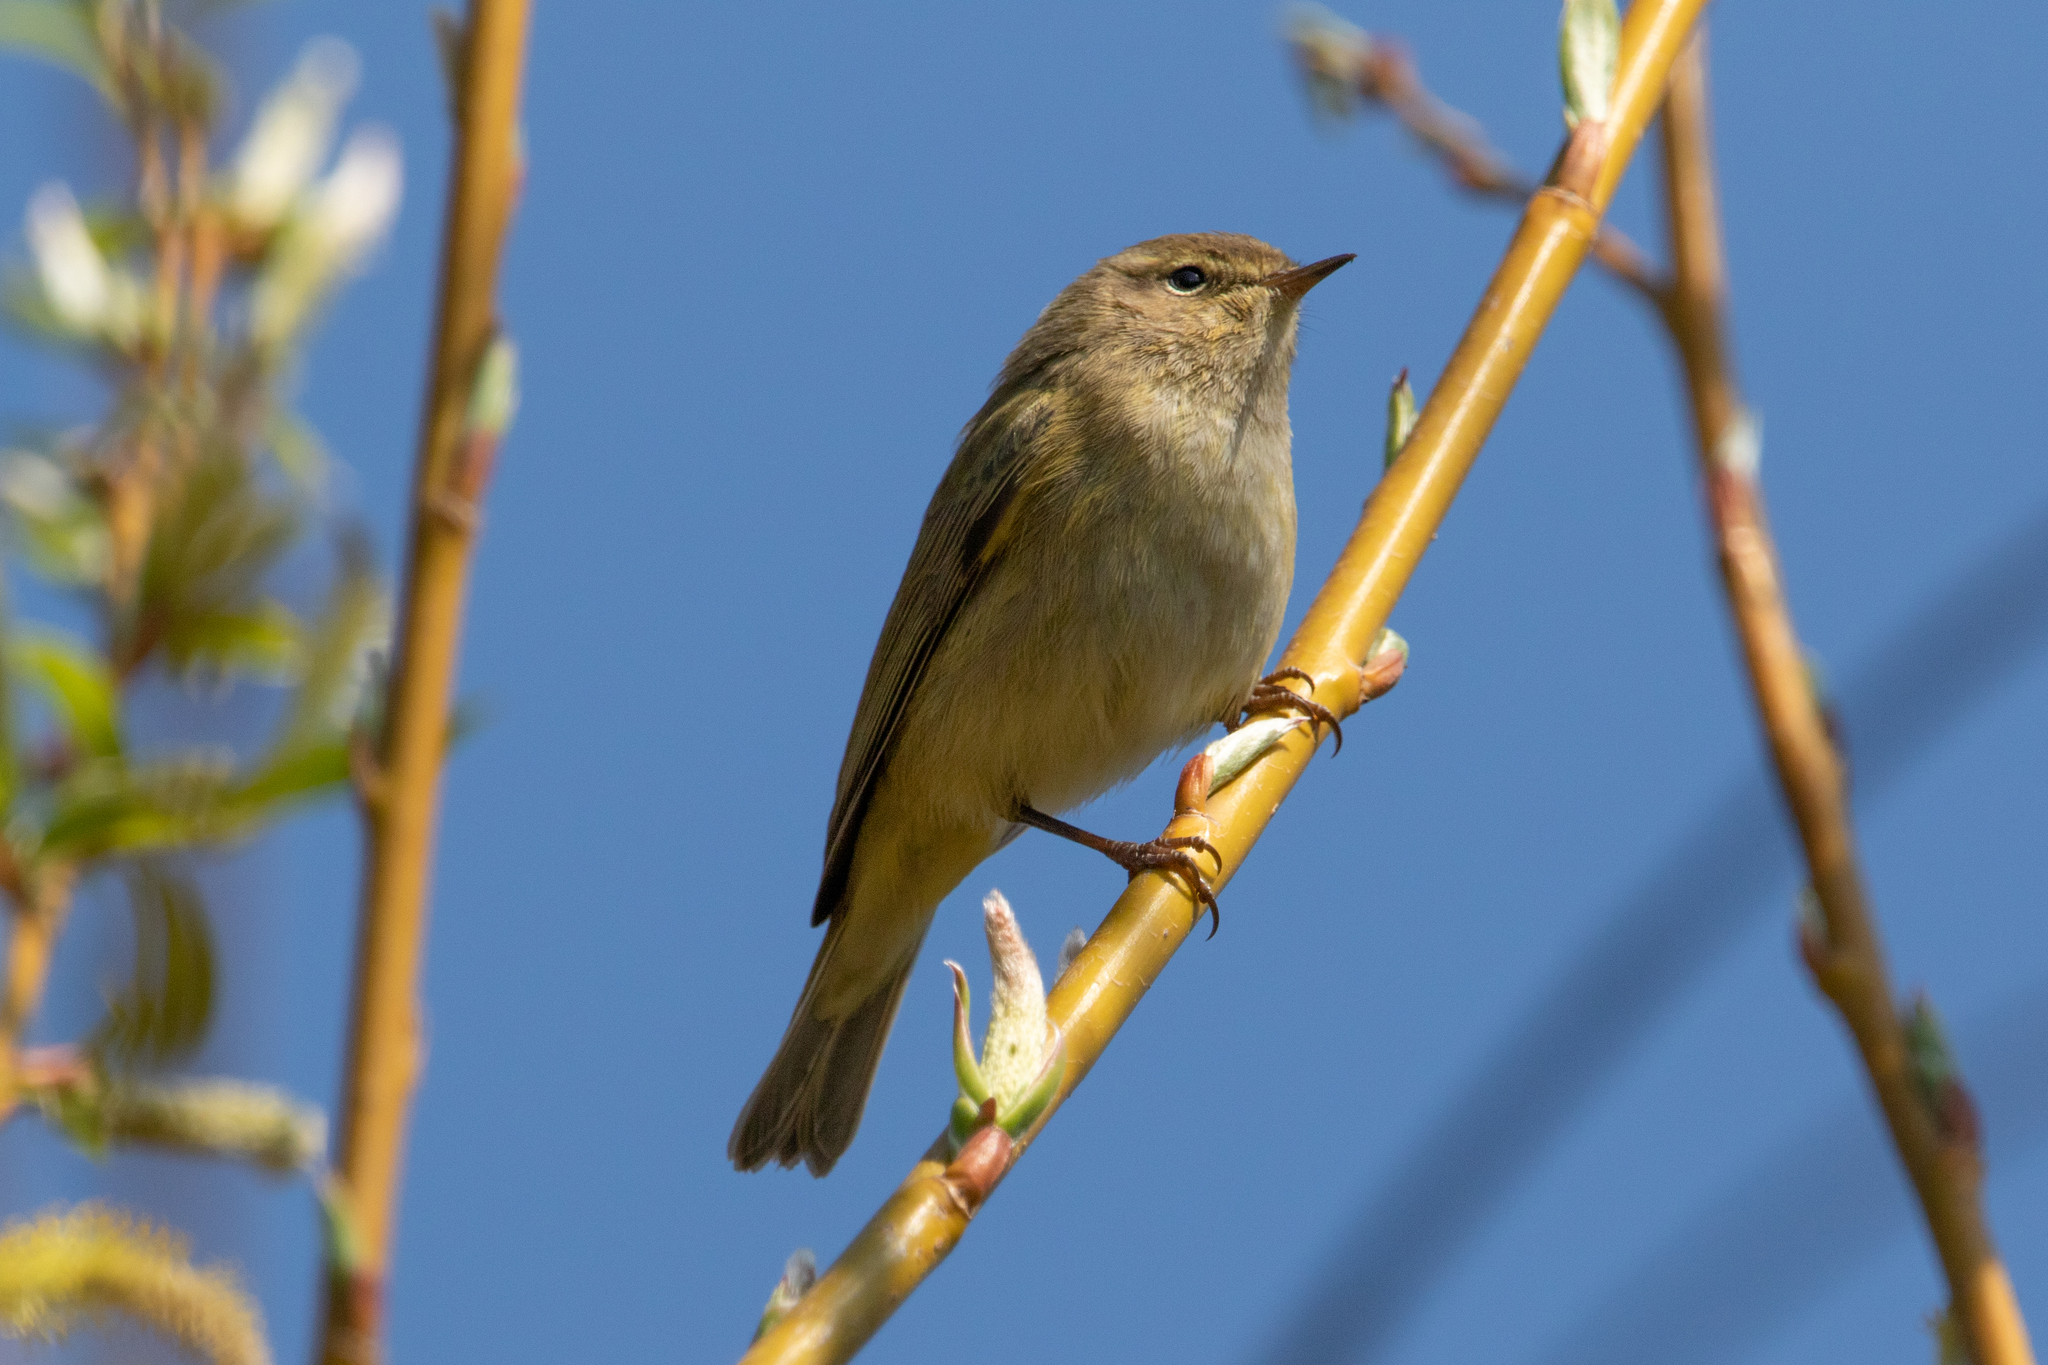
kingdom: Animalia
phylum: Chordata
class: Aves
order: Passeriformes
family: Phylloscopidae
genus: Phylloscopus
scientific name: Phylloscopus collybita
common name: Common chiffchaff
